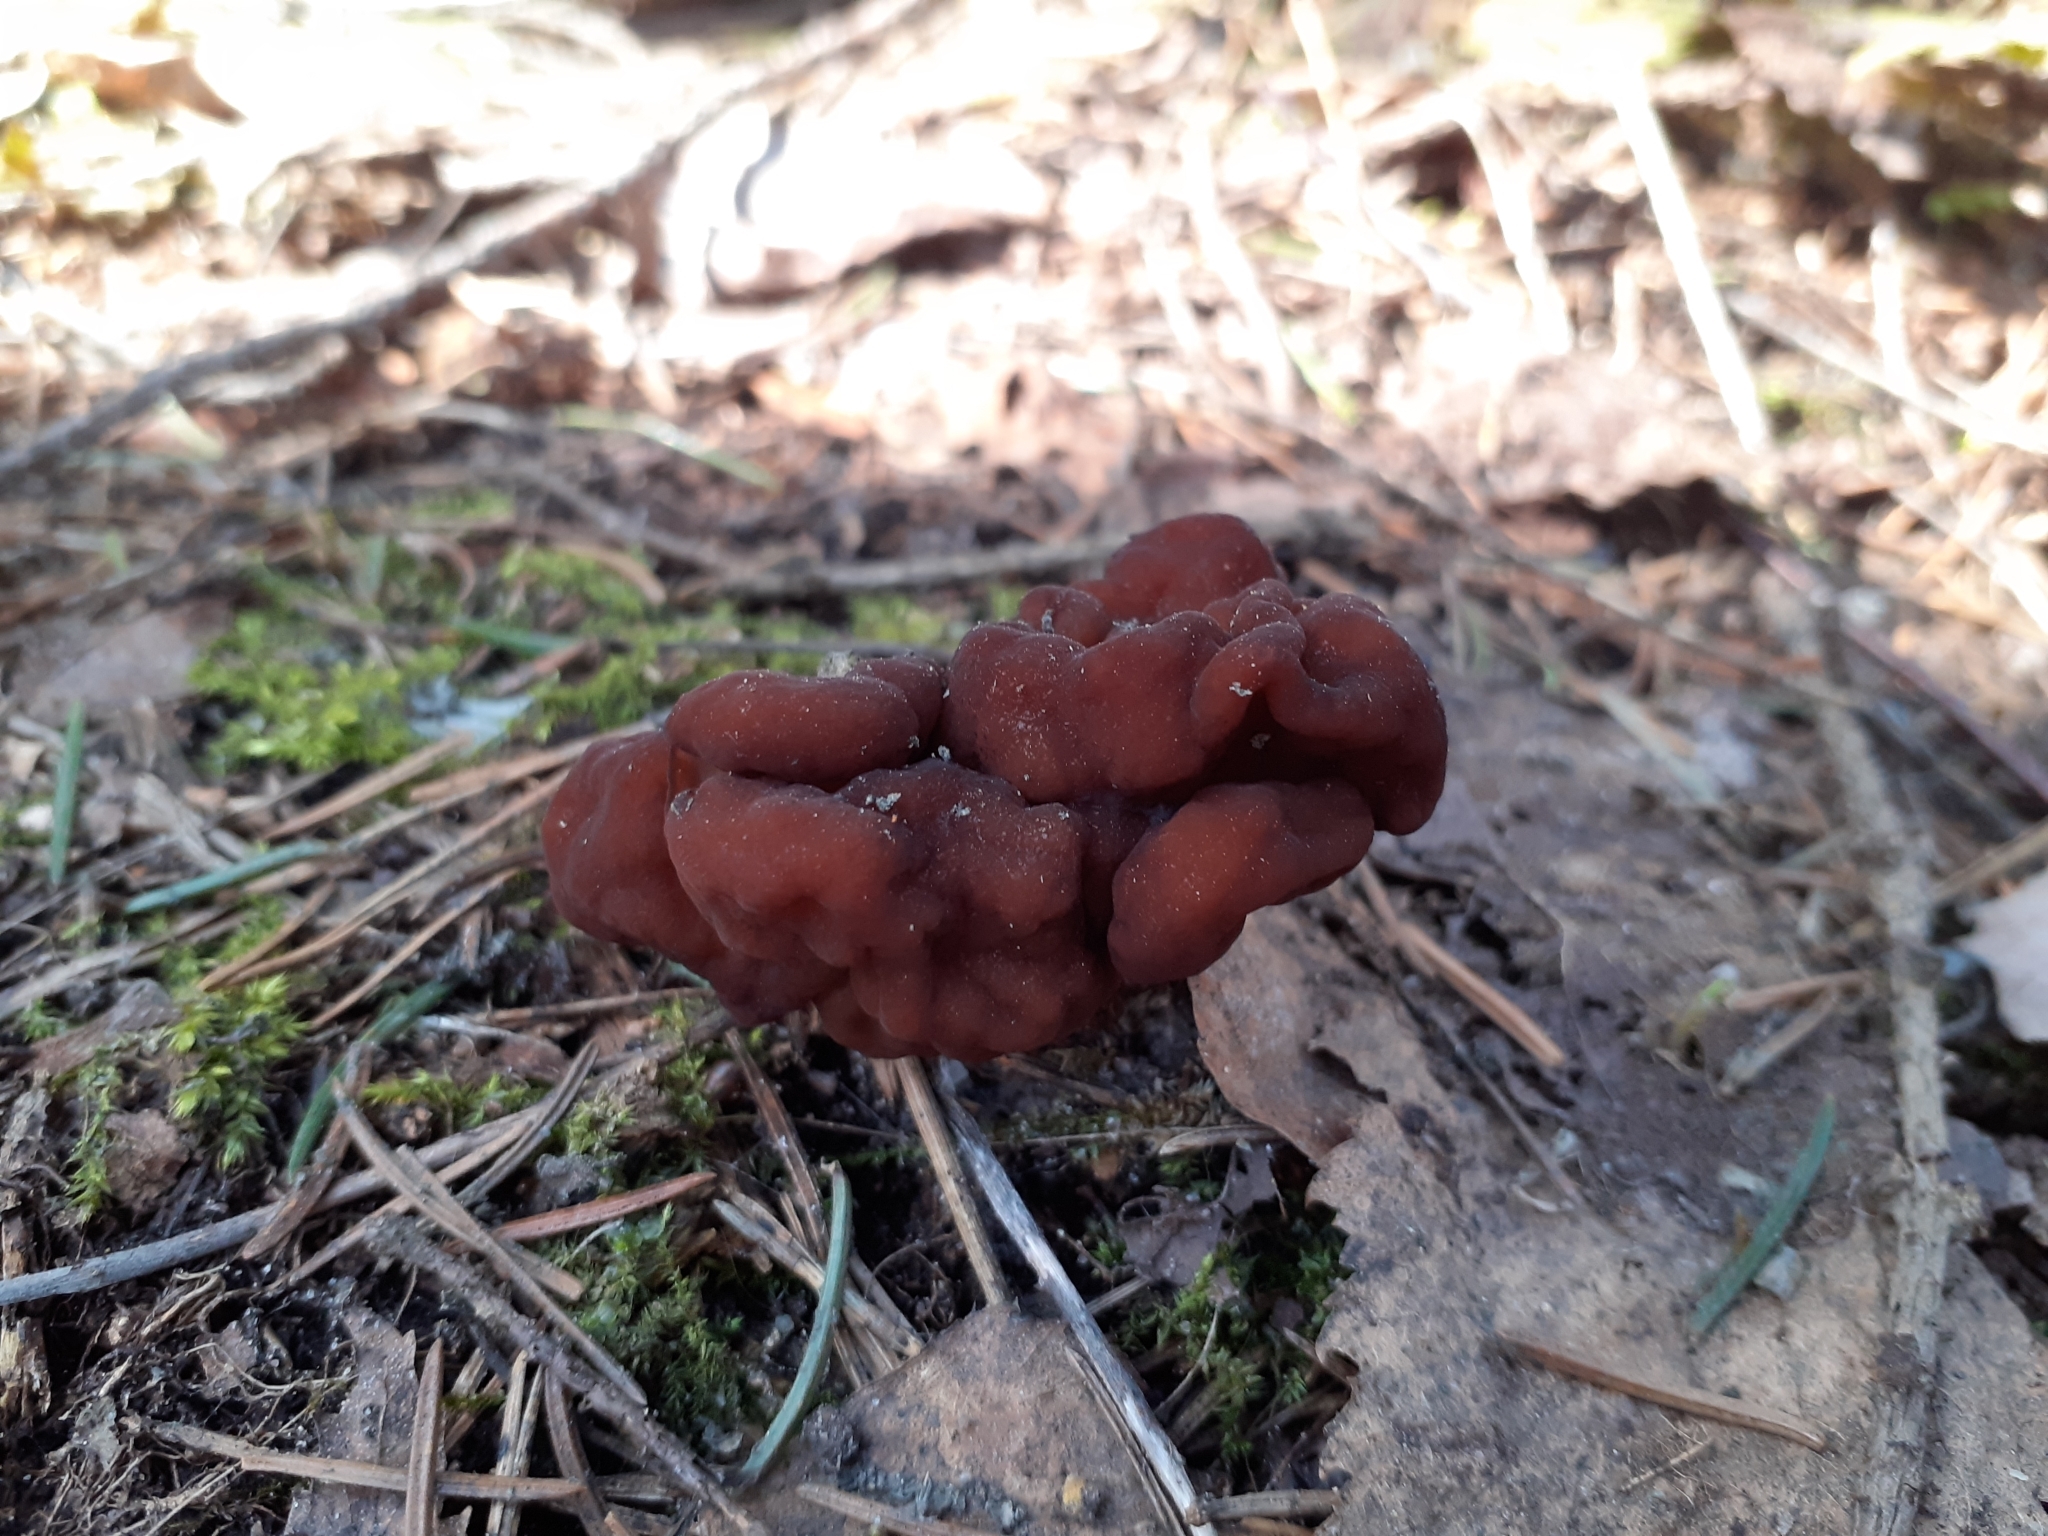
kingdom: Fungi
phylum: Ascomycota
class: Pezizomycetes
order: Pezizales
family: Discinaceae
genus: Gyromitra
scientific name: Gyromitra esculenta
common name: False morel
